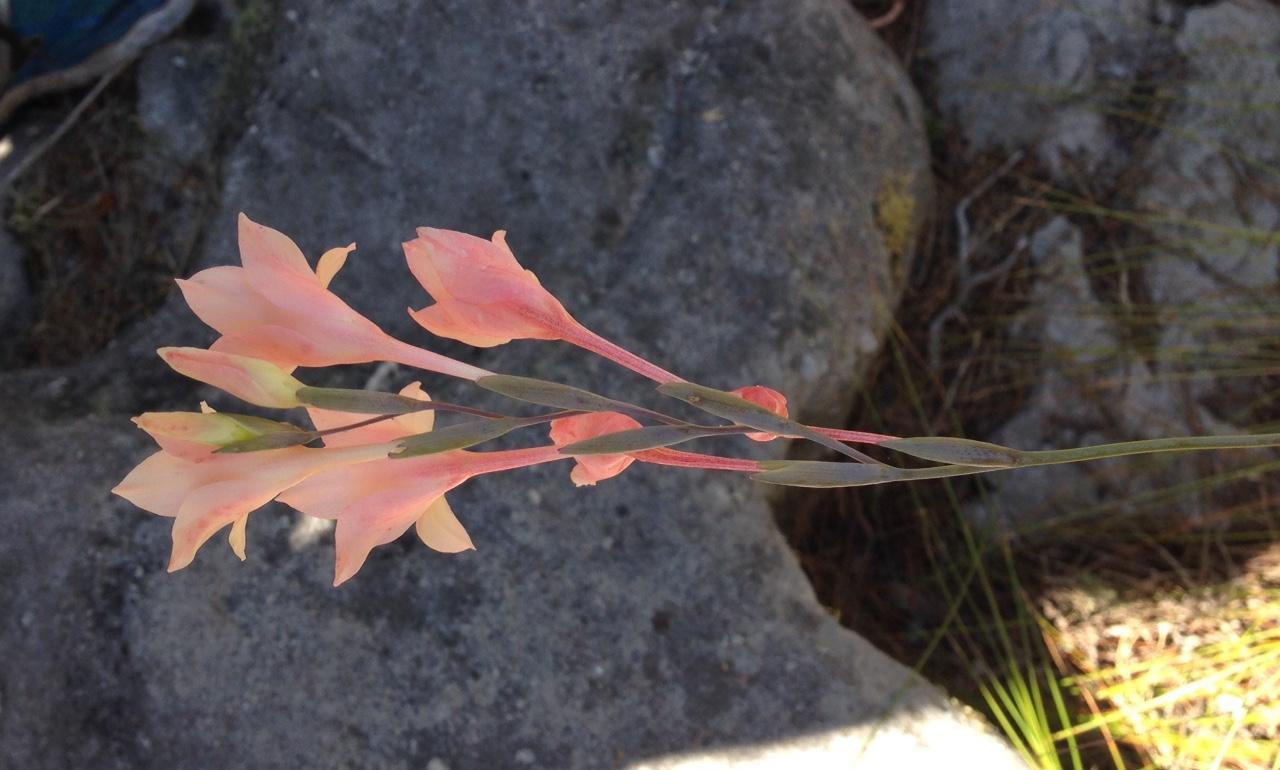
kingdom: Plantae
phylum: Tracheophyta
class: Liliopsida
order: Asparagales
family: Iridaceae
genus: Gladiolus
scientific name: Gladiolus monticola
